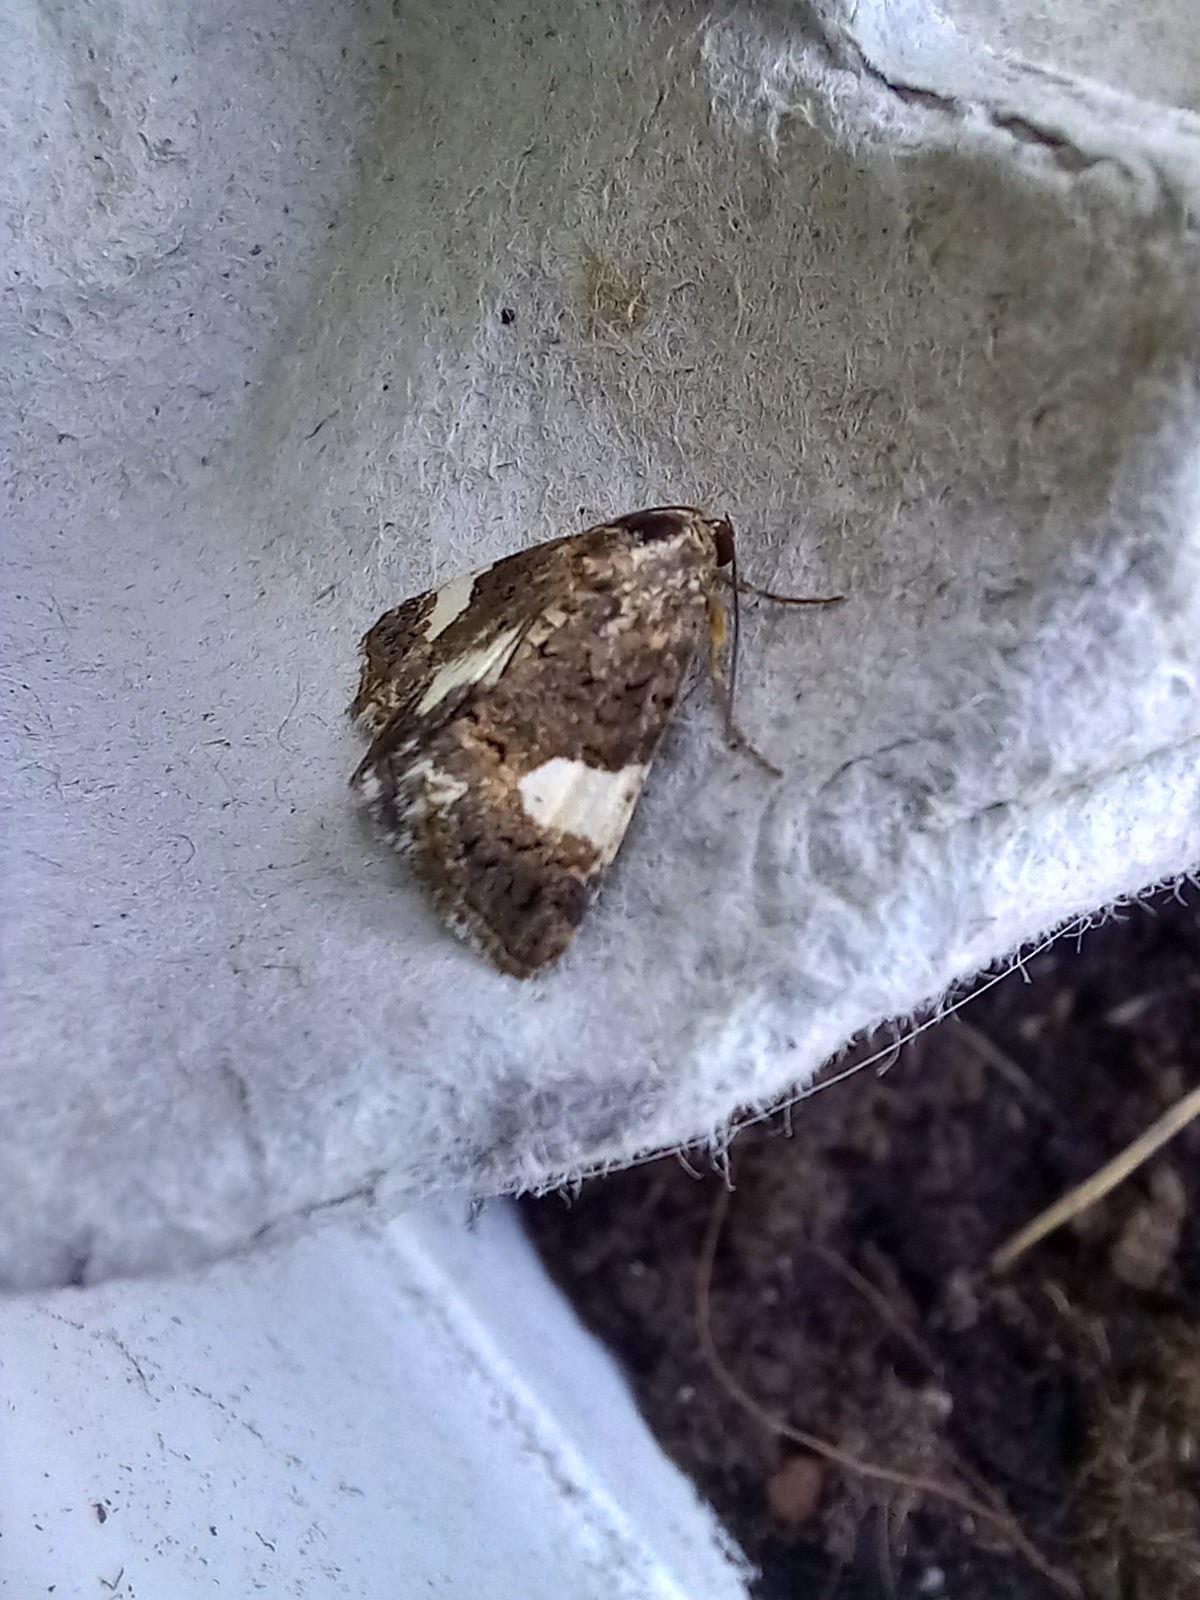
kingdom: Animalia
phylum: Arthropoda
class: Insecta
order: Lepidoptera
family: Erebidae
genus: Tyta
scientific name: Tyta luctuosa
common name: Four-spotted
